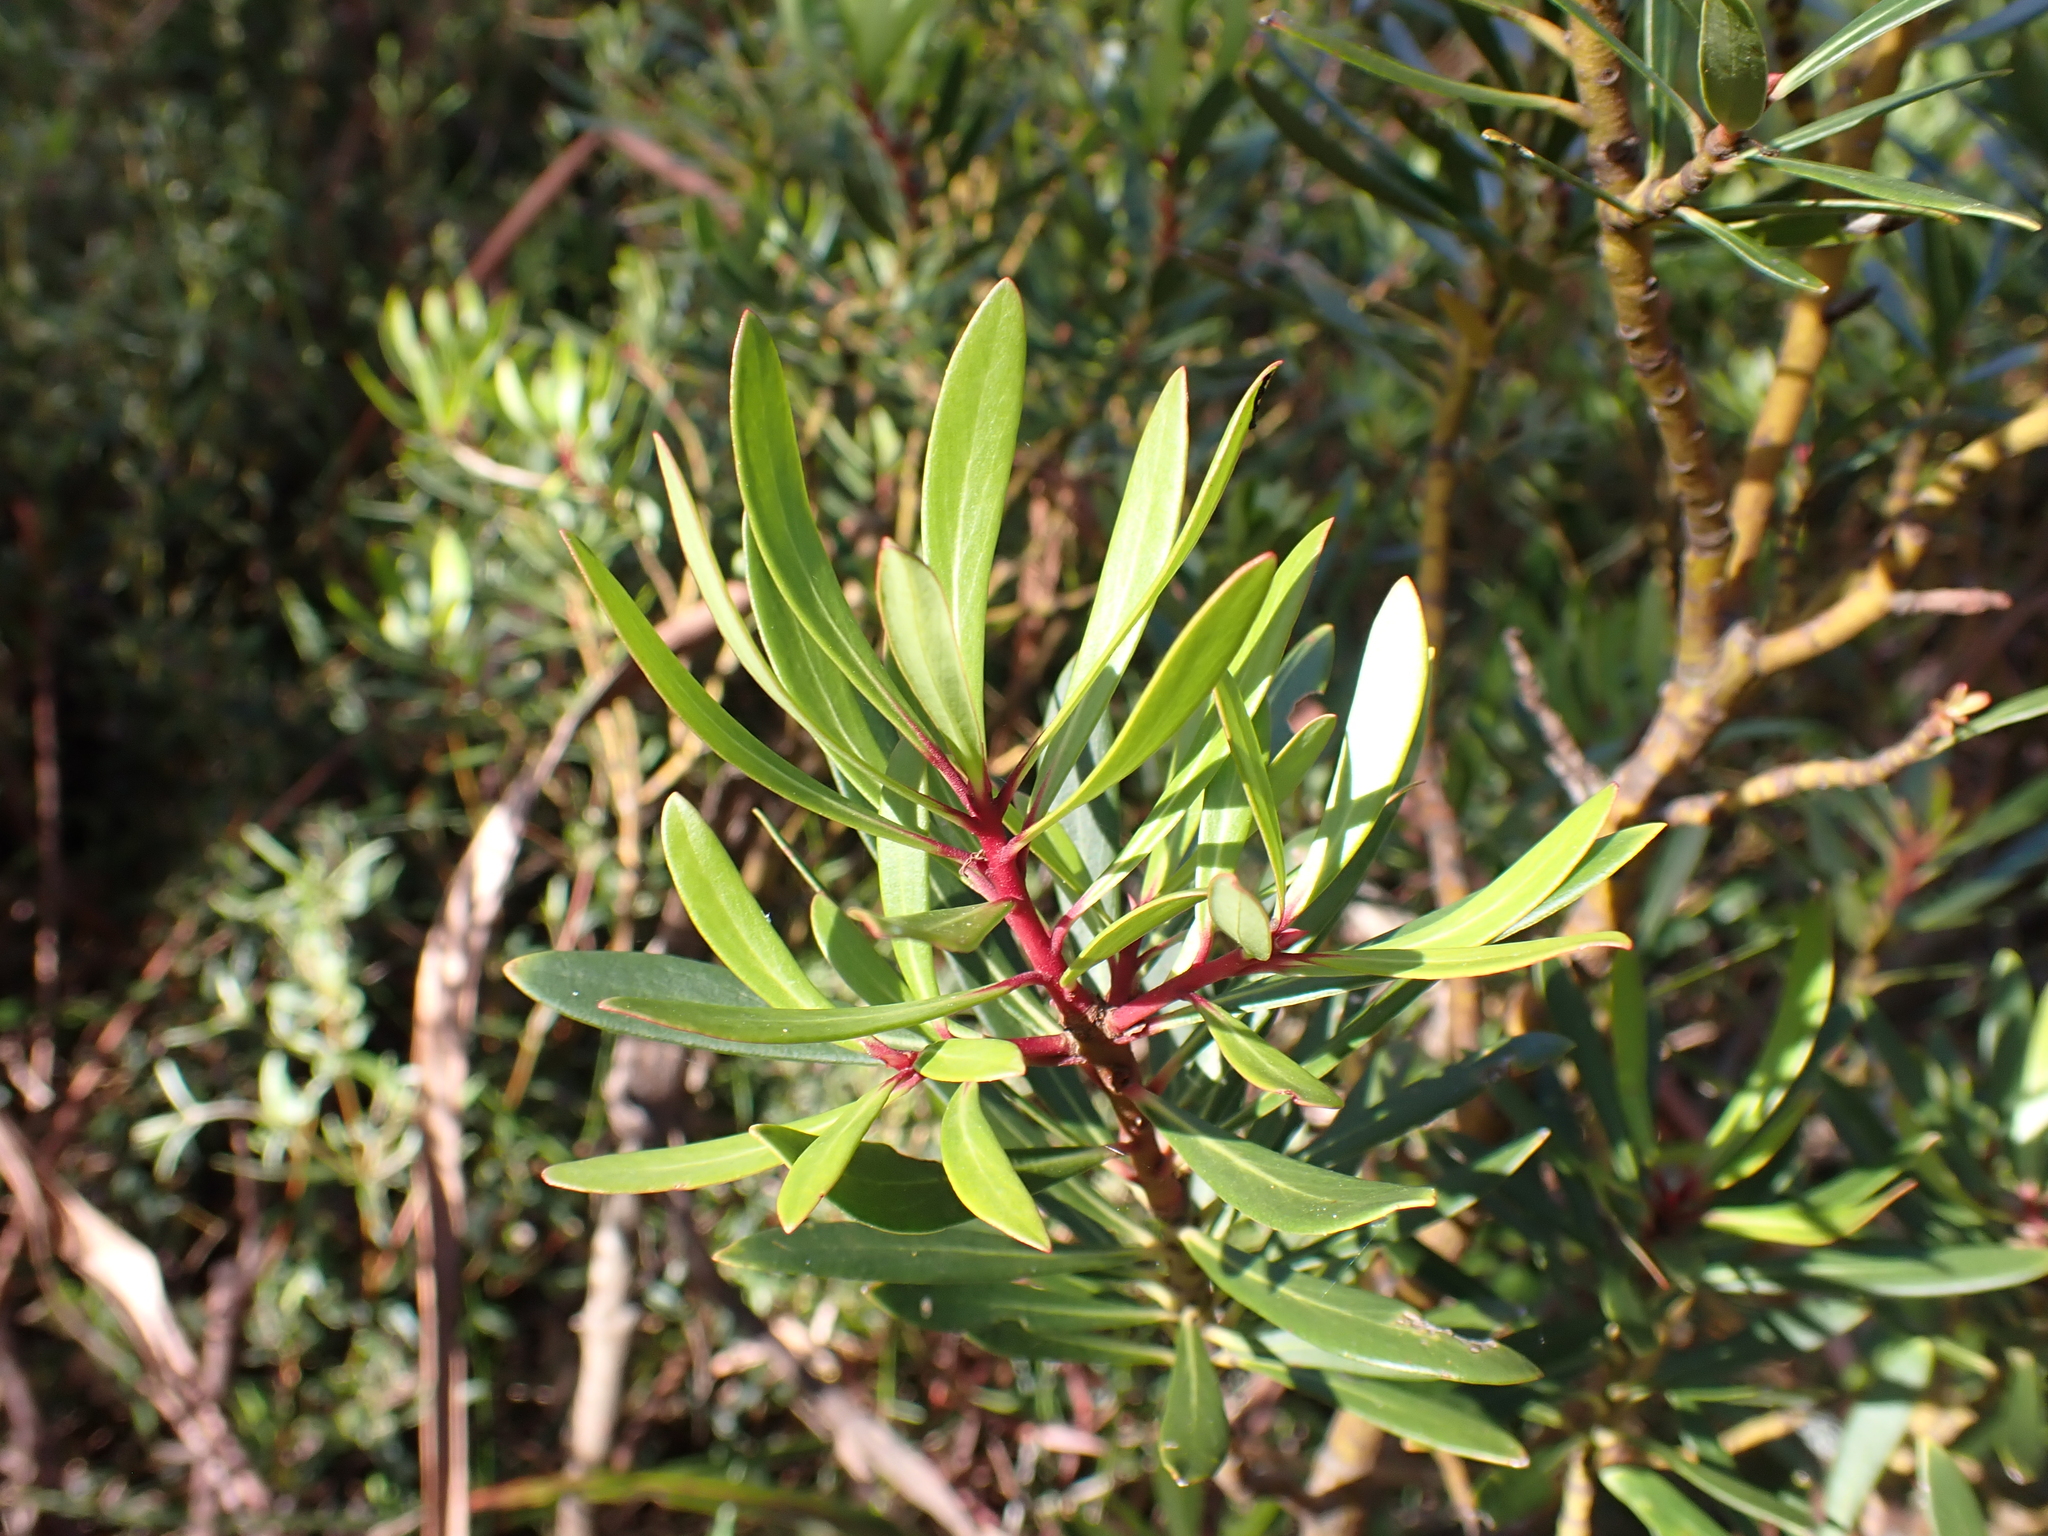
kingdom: Plantae
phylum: Tracheophyta
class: Magnoliopsida
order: Canellales
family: Winteraceae
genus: Drimys
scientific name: Drimys xerophila
